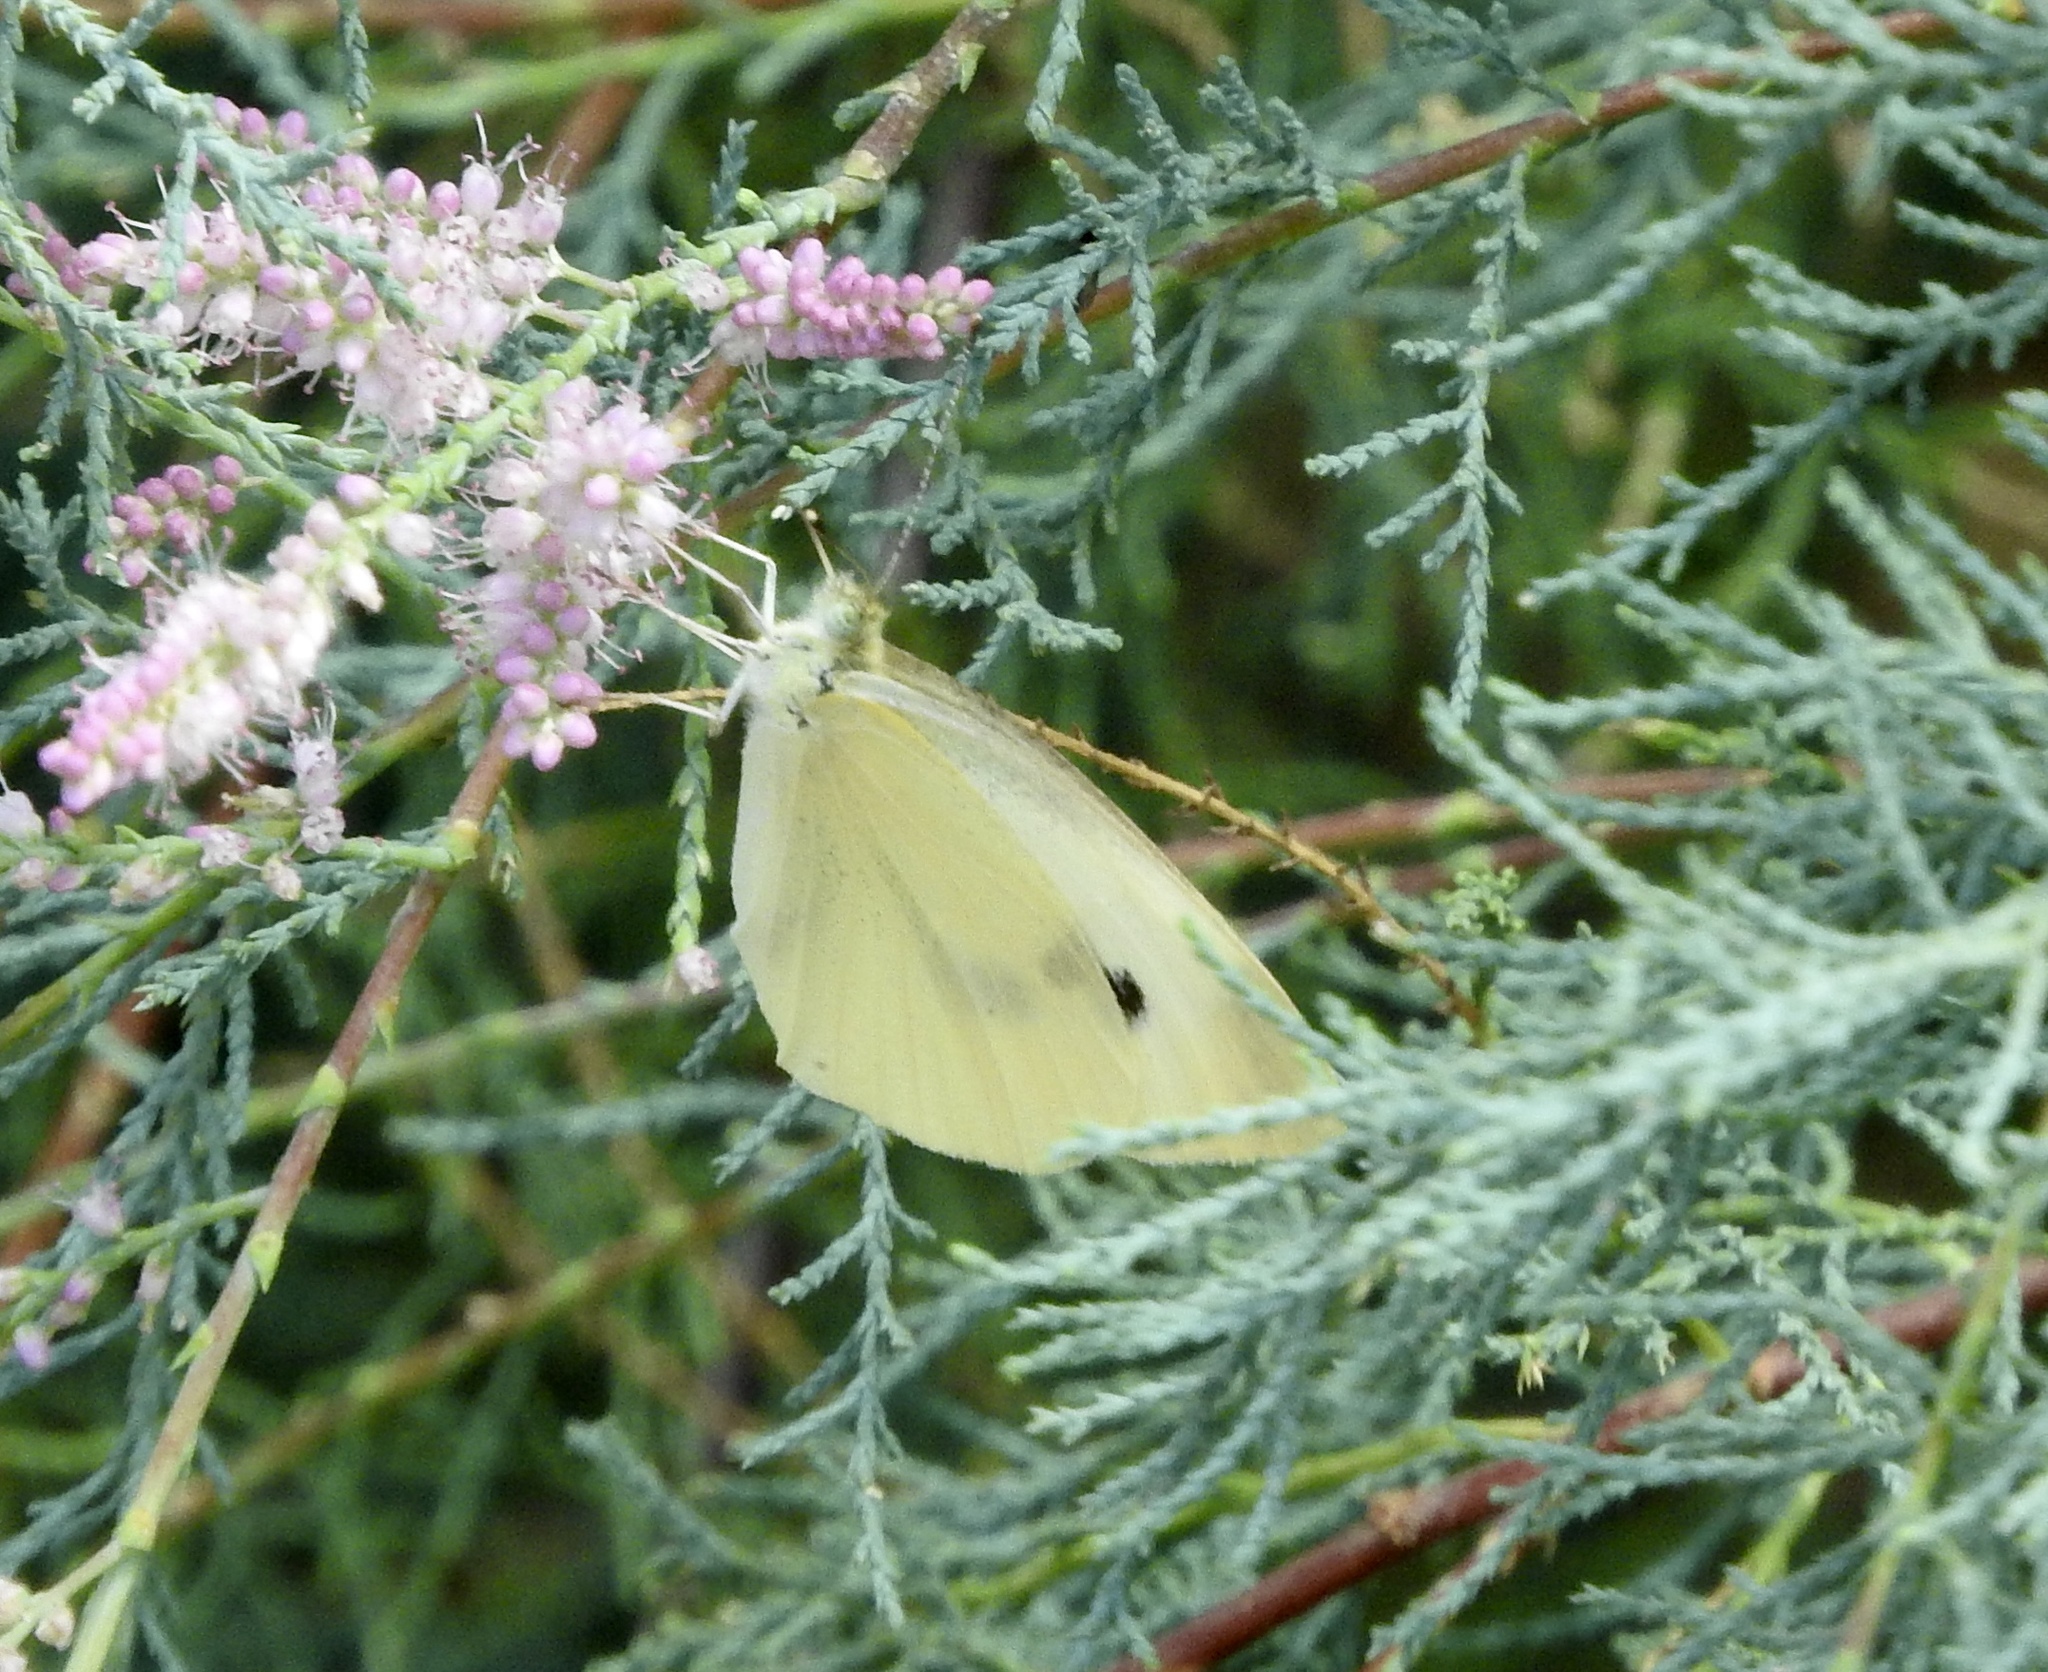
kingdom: Animalia
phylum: Arthropoda
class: Insecta
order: Lepidoptera
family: Pieridae
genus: Pieris
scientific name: Pieris rapae
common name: Small white
